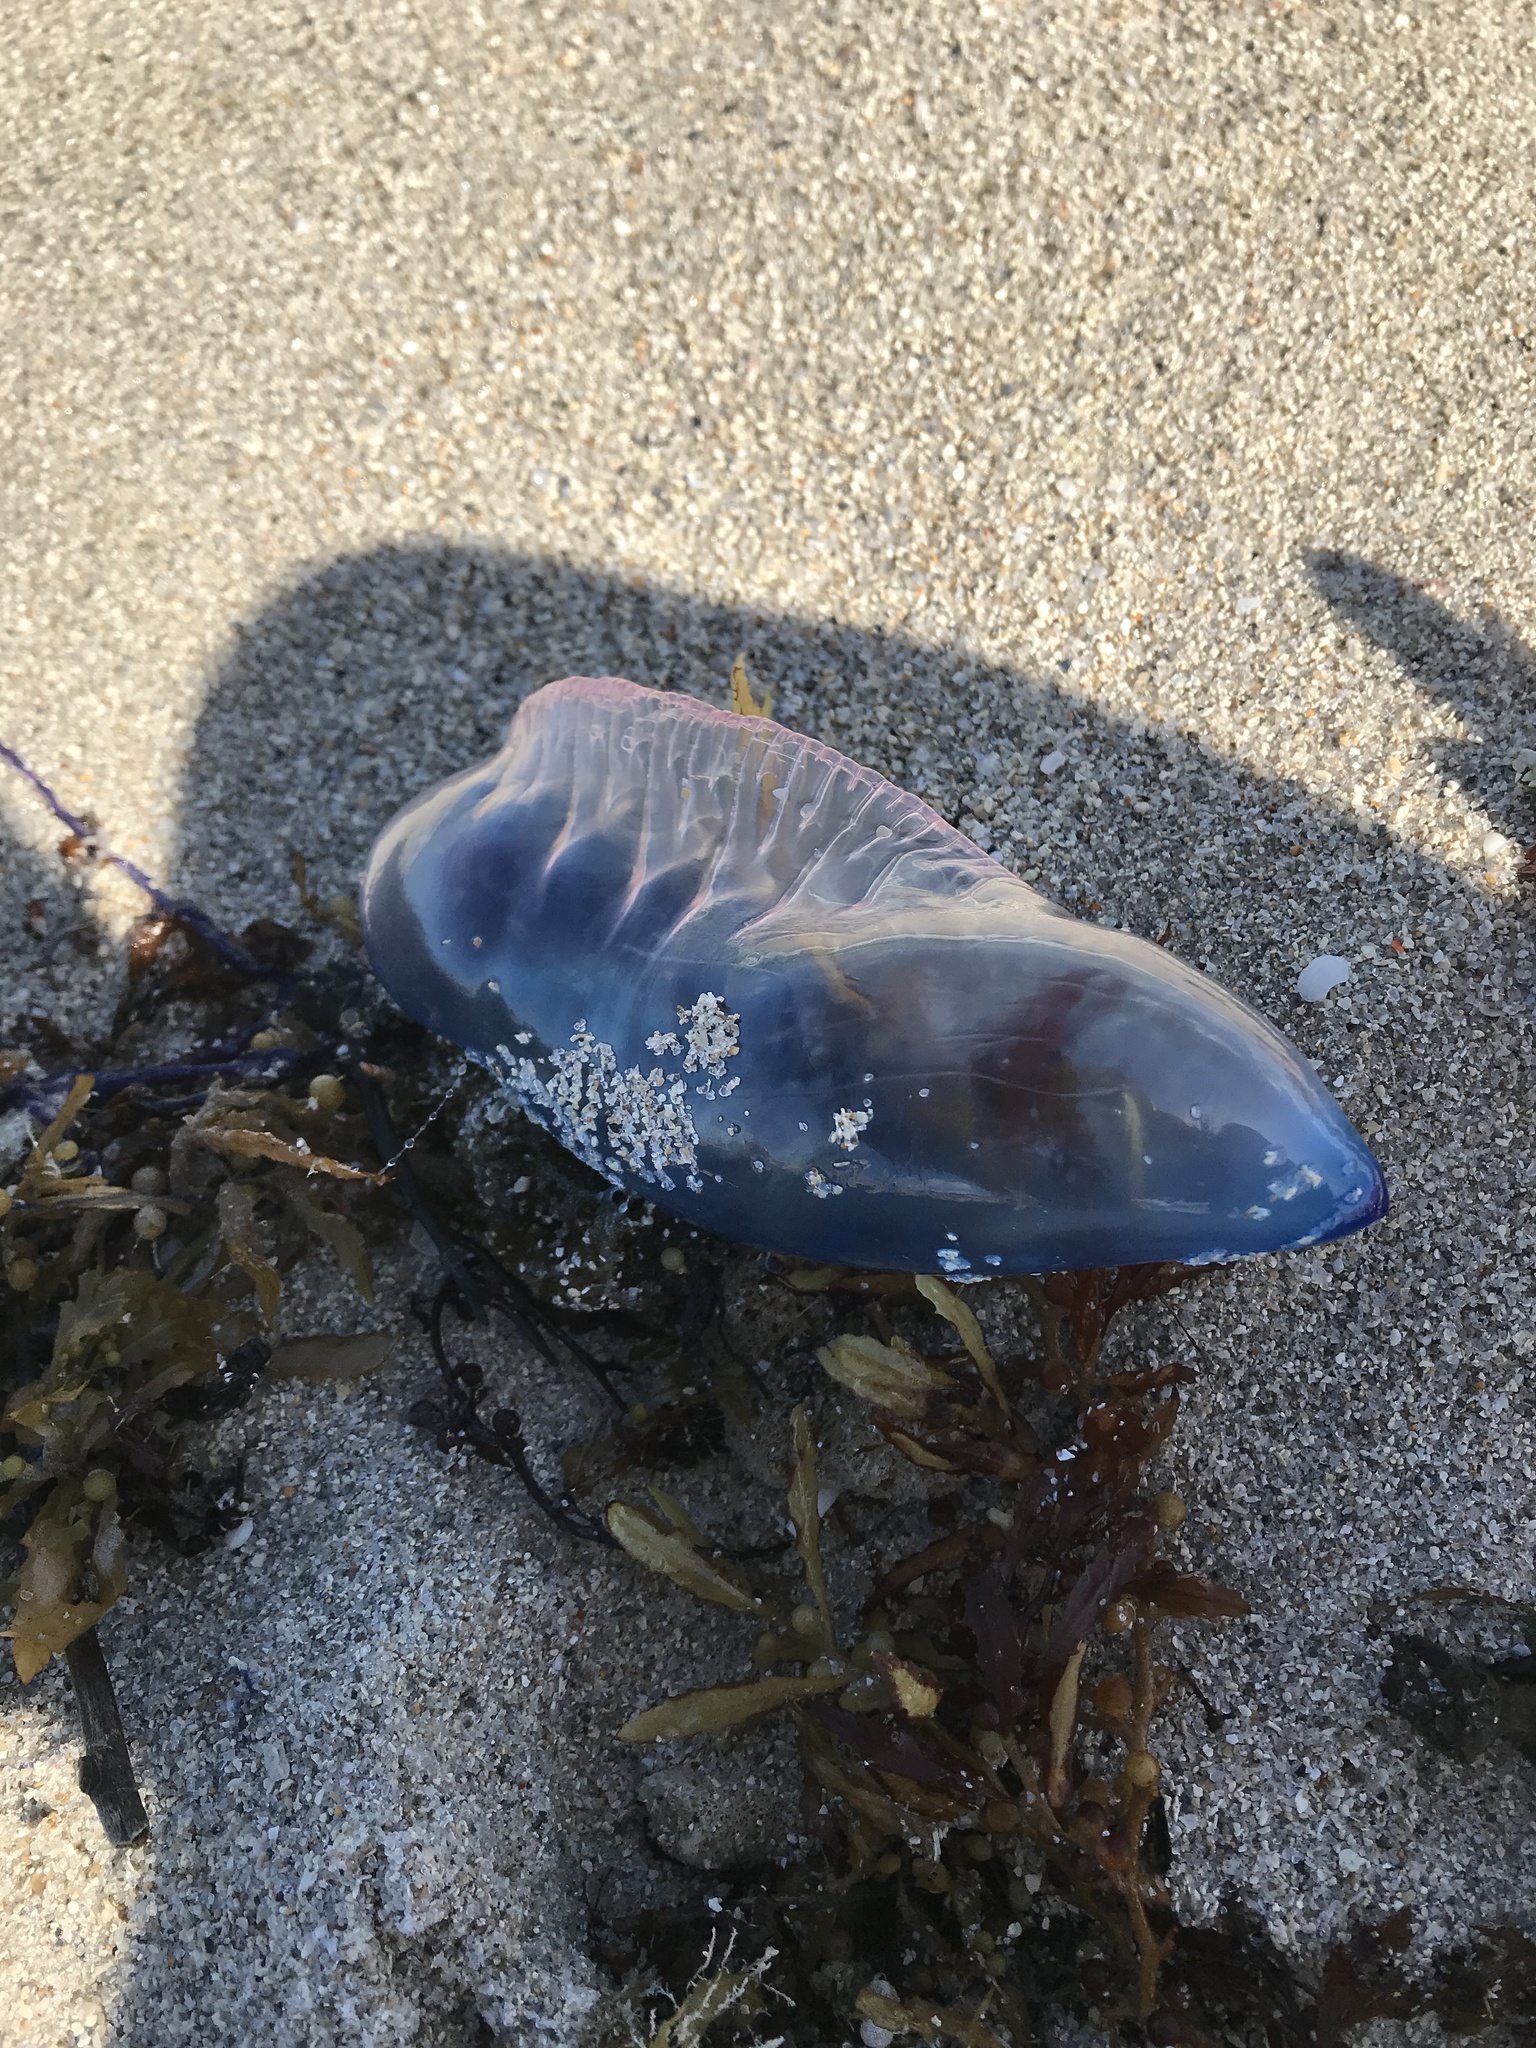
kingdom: Animalia
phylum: Cnidaria
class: Hydrozoa
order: Siphonophorae
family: Physaliidae
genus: Physalia
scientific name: Physalia physalis
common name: Portuguese man-of-war
